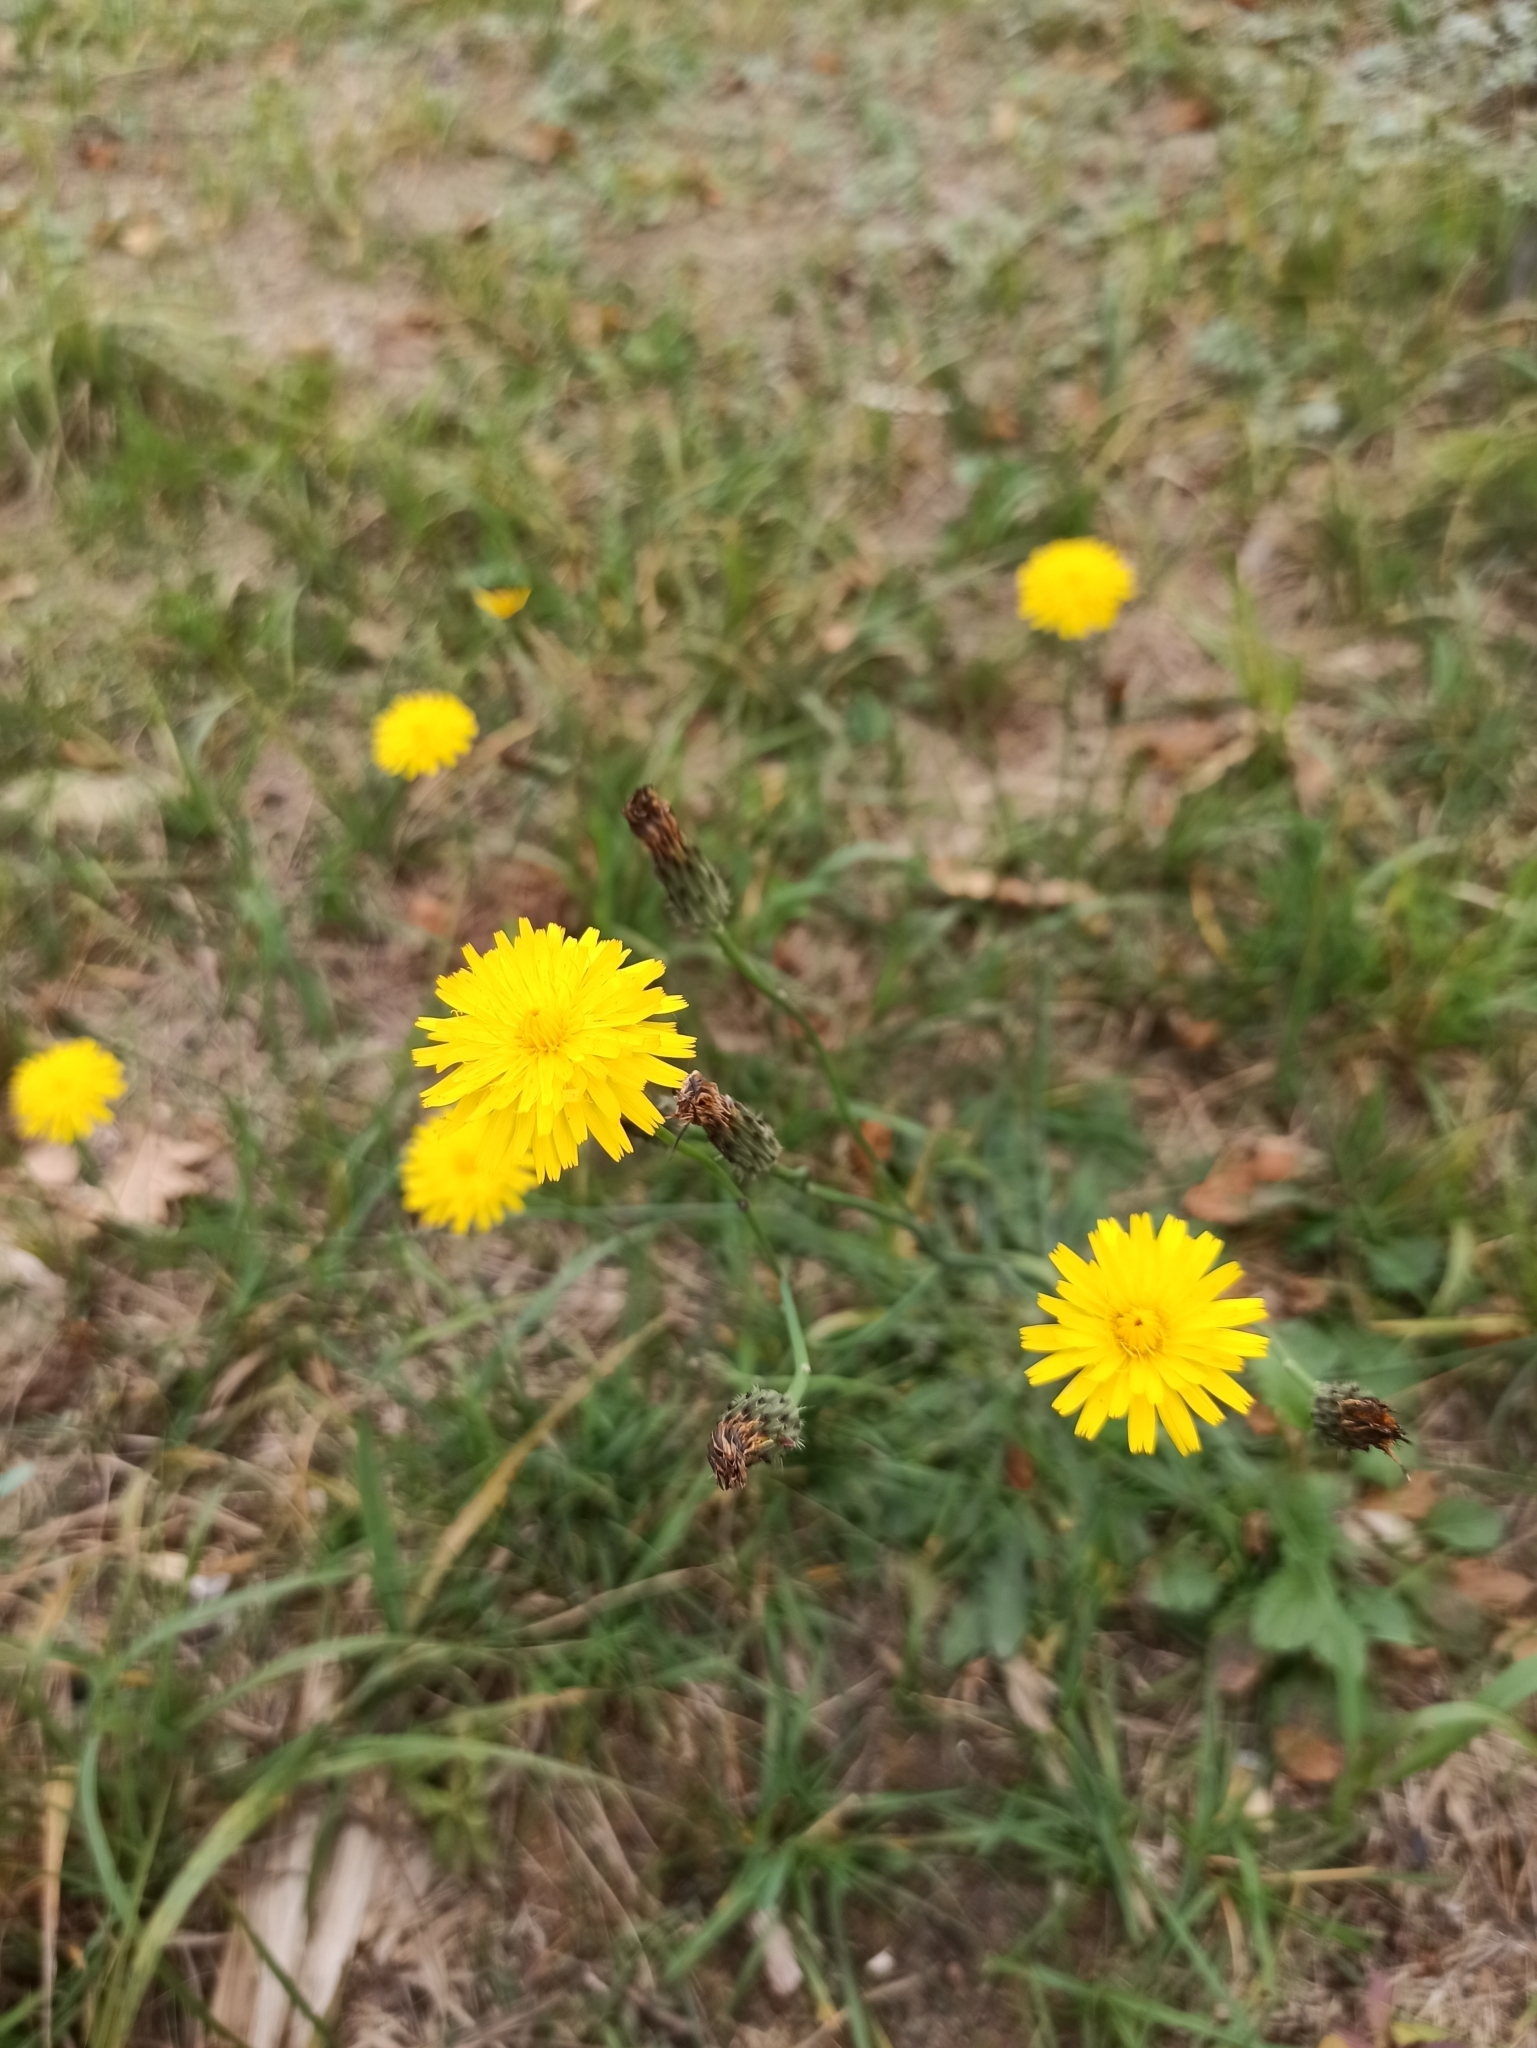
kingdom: Plantae
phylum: Tracheophyta
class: Magnoliopsida
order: Asterales
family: Asteraceae
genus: Hypochaeris
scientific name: Hypochaeris radicata
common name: Flatweed
